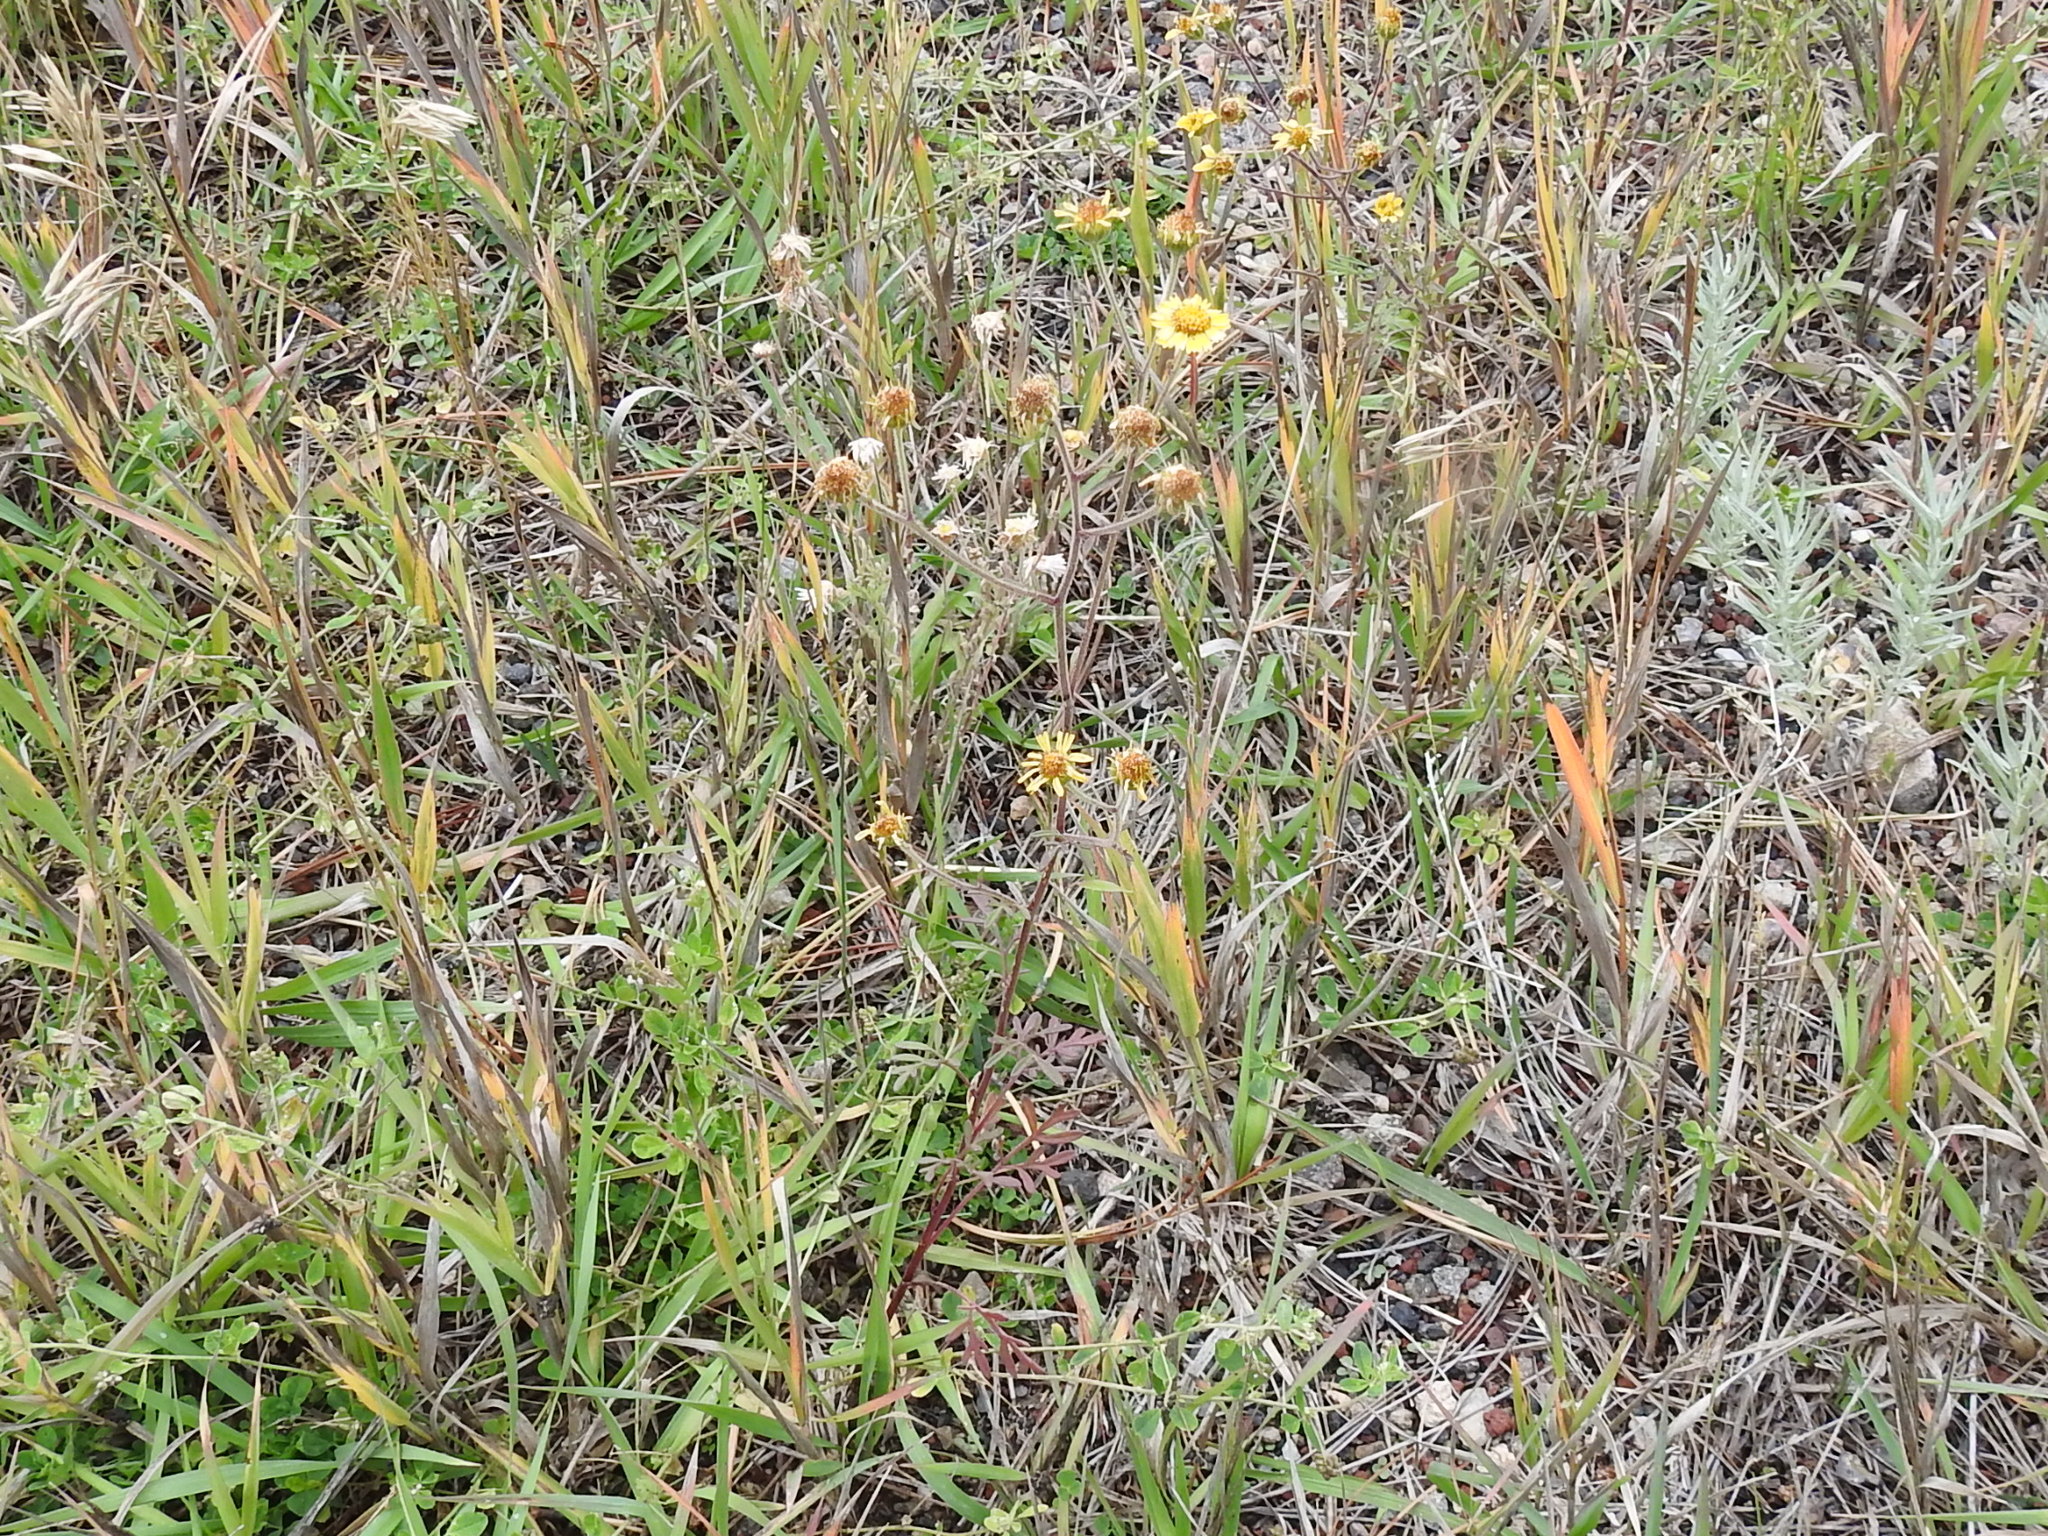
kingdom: Plantae
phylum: Tracheophyta
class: Magnoliopsida
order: Asterales
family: Asteraceae
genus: Hymenothrix
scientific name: Hymenothrix dissecta
